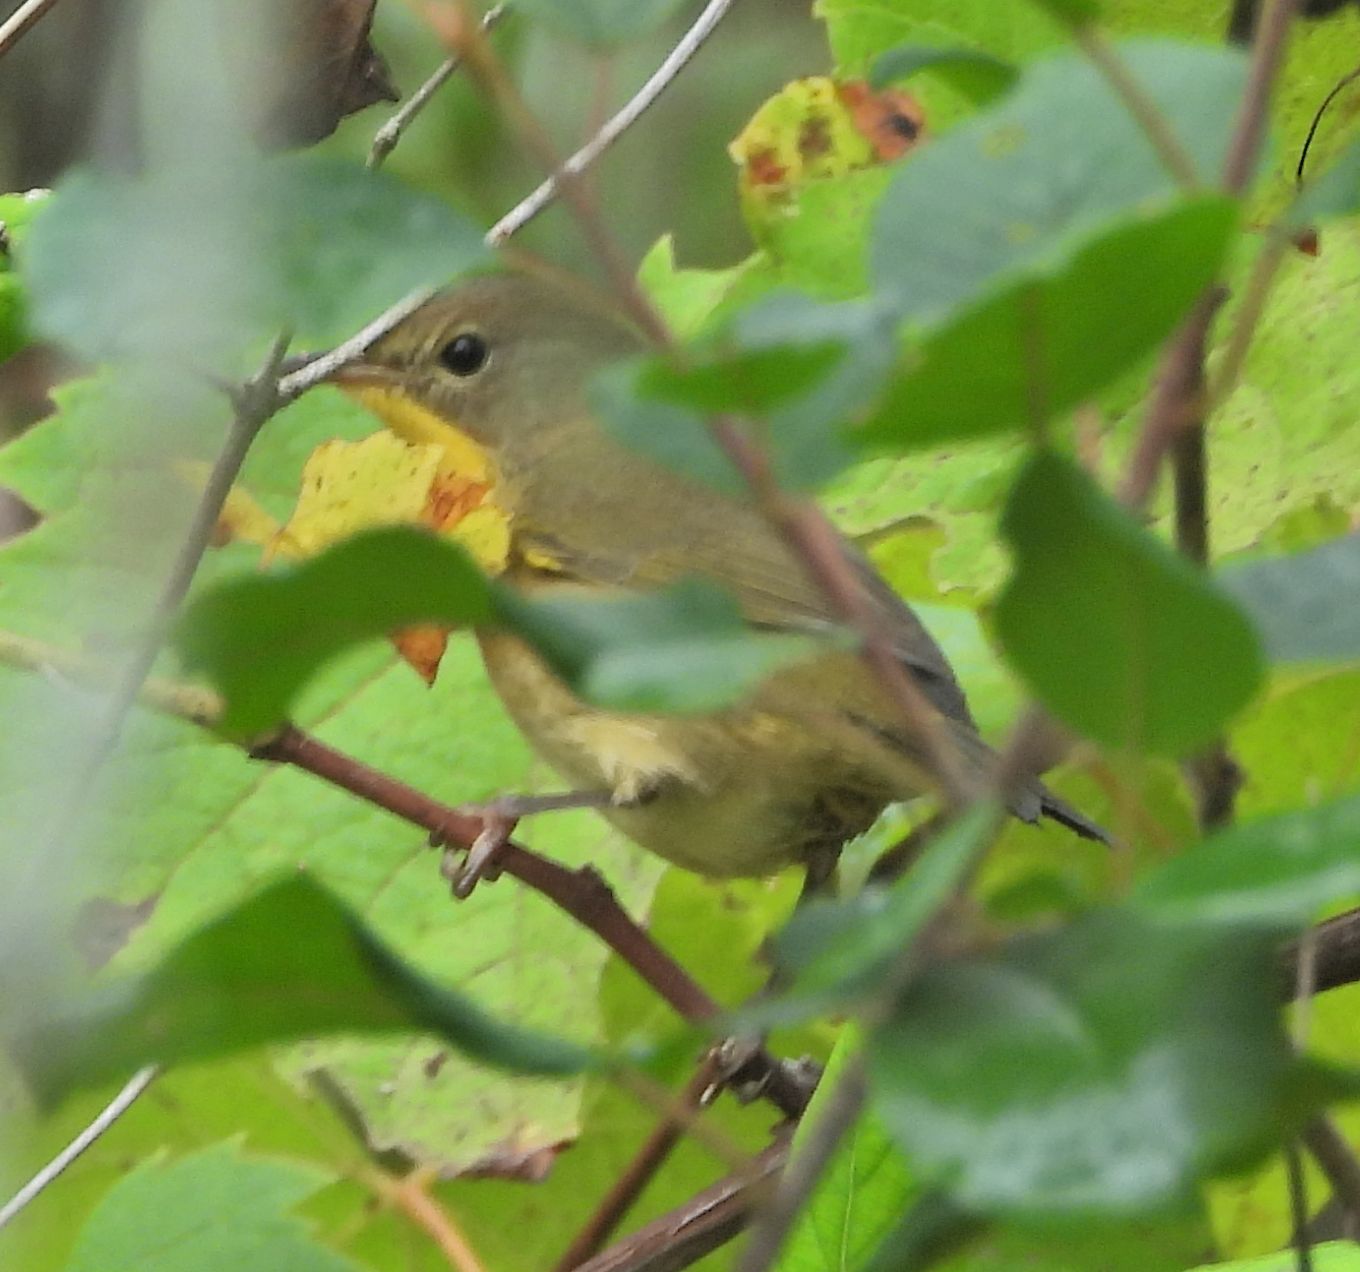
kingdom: Animalia
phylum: Chordata
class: Aves
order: Passeriformes
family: Parulidae
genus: Geothlypis
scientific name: Geothlypis trichas
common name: Common yellowthroat
